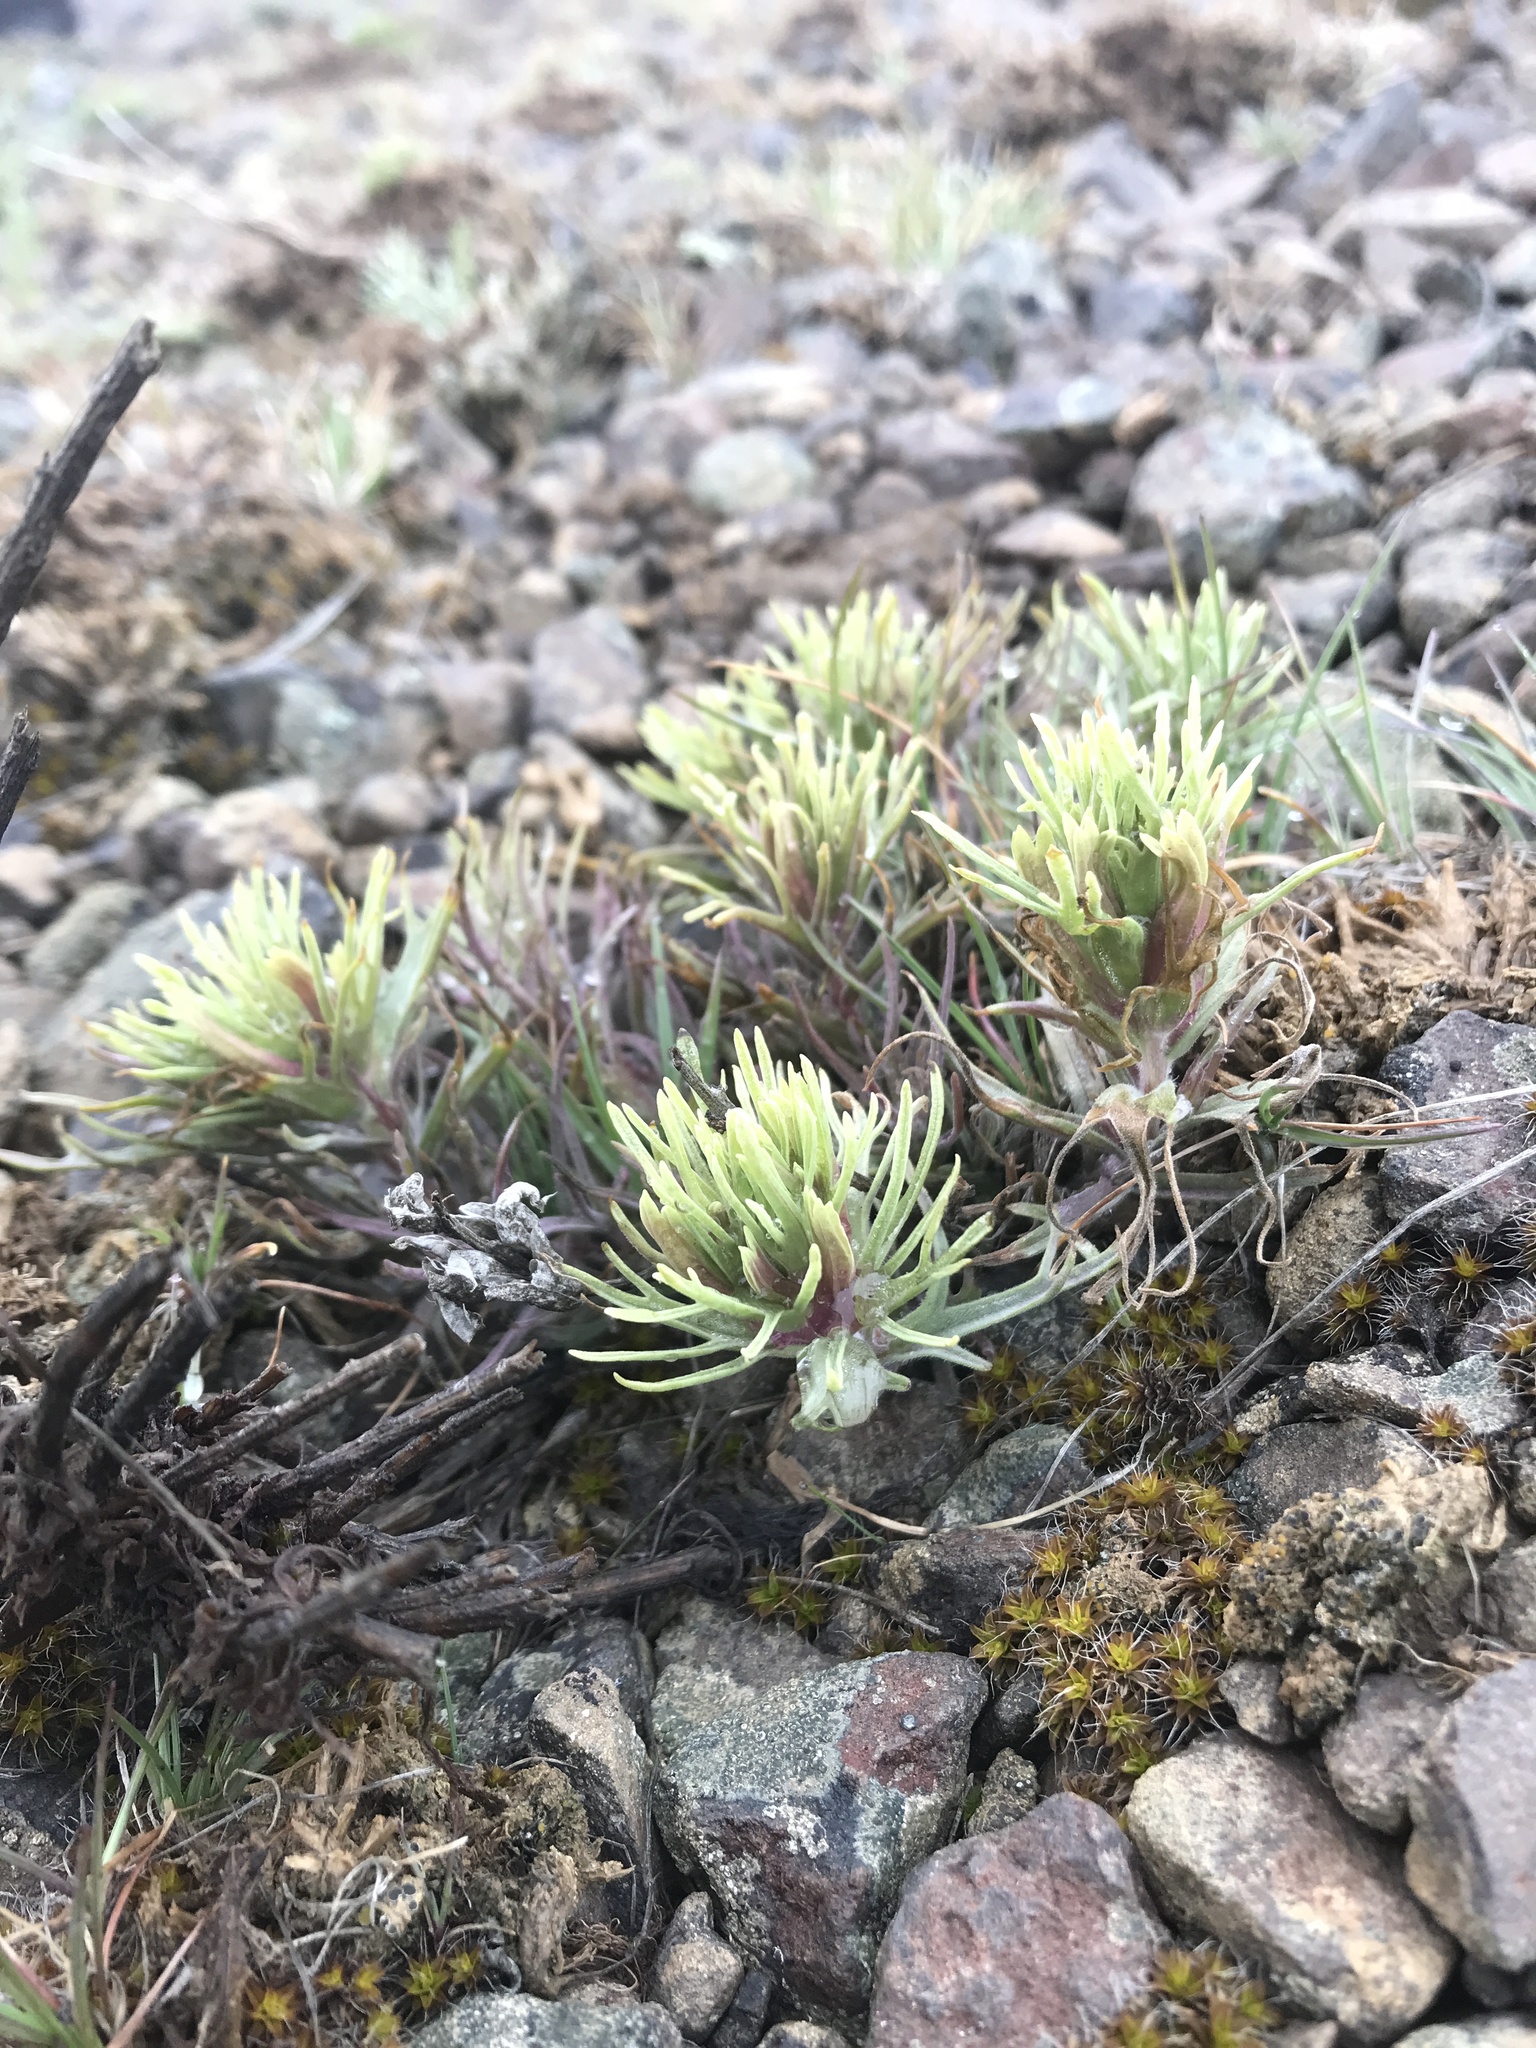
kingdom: Plantae
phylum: Tracheophyta
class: Magnoliopsida
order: Lamiales
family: Orobanchaceae
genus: Castilleja
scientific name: Castilleja thompsonii
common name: Thompson's paintbrush
